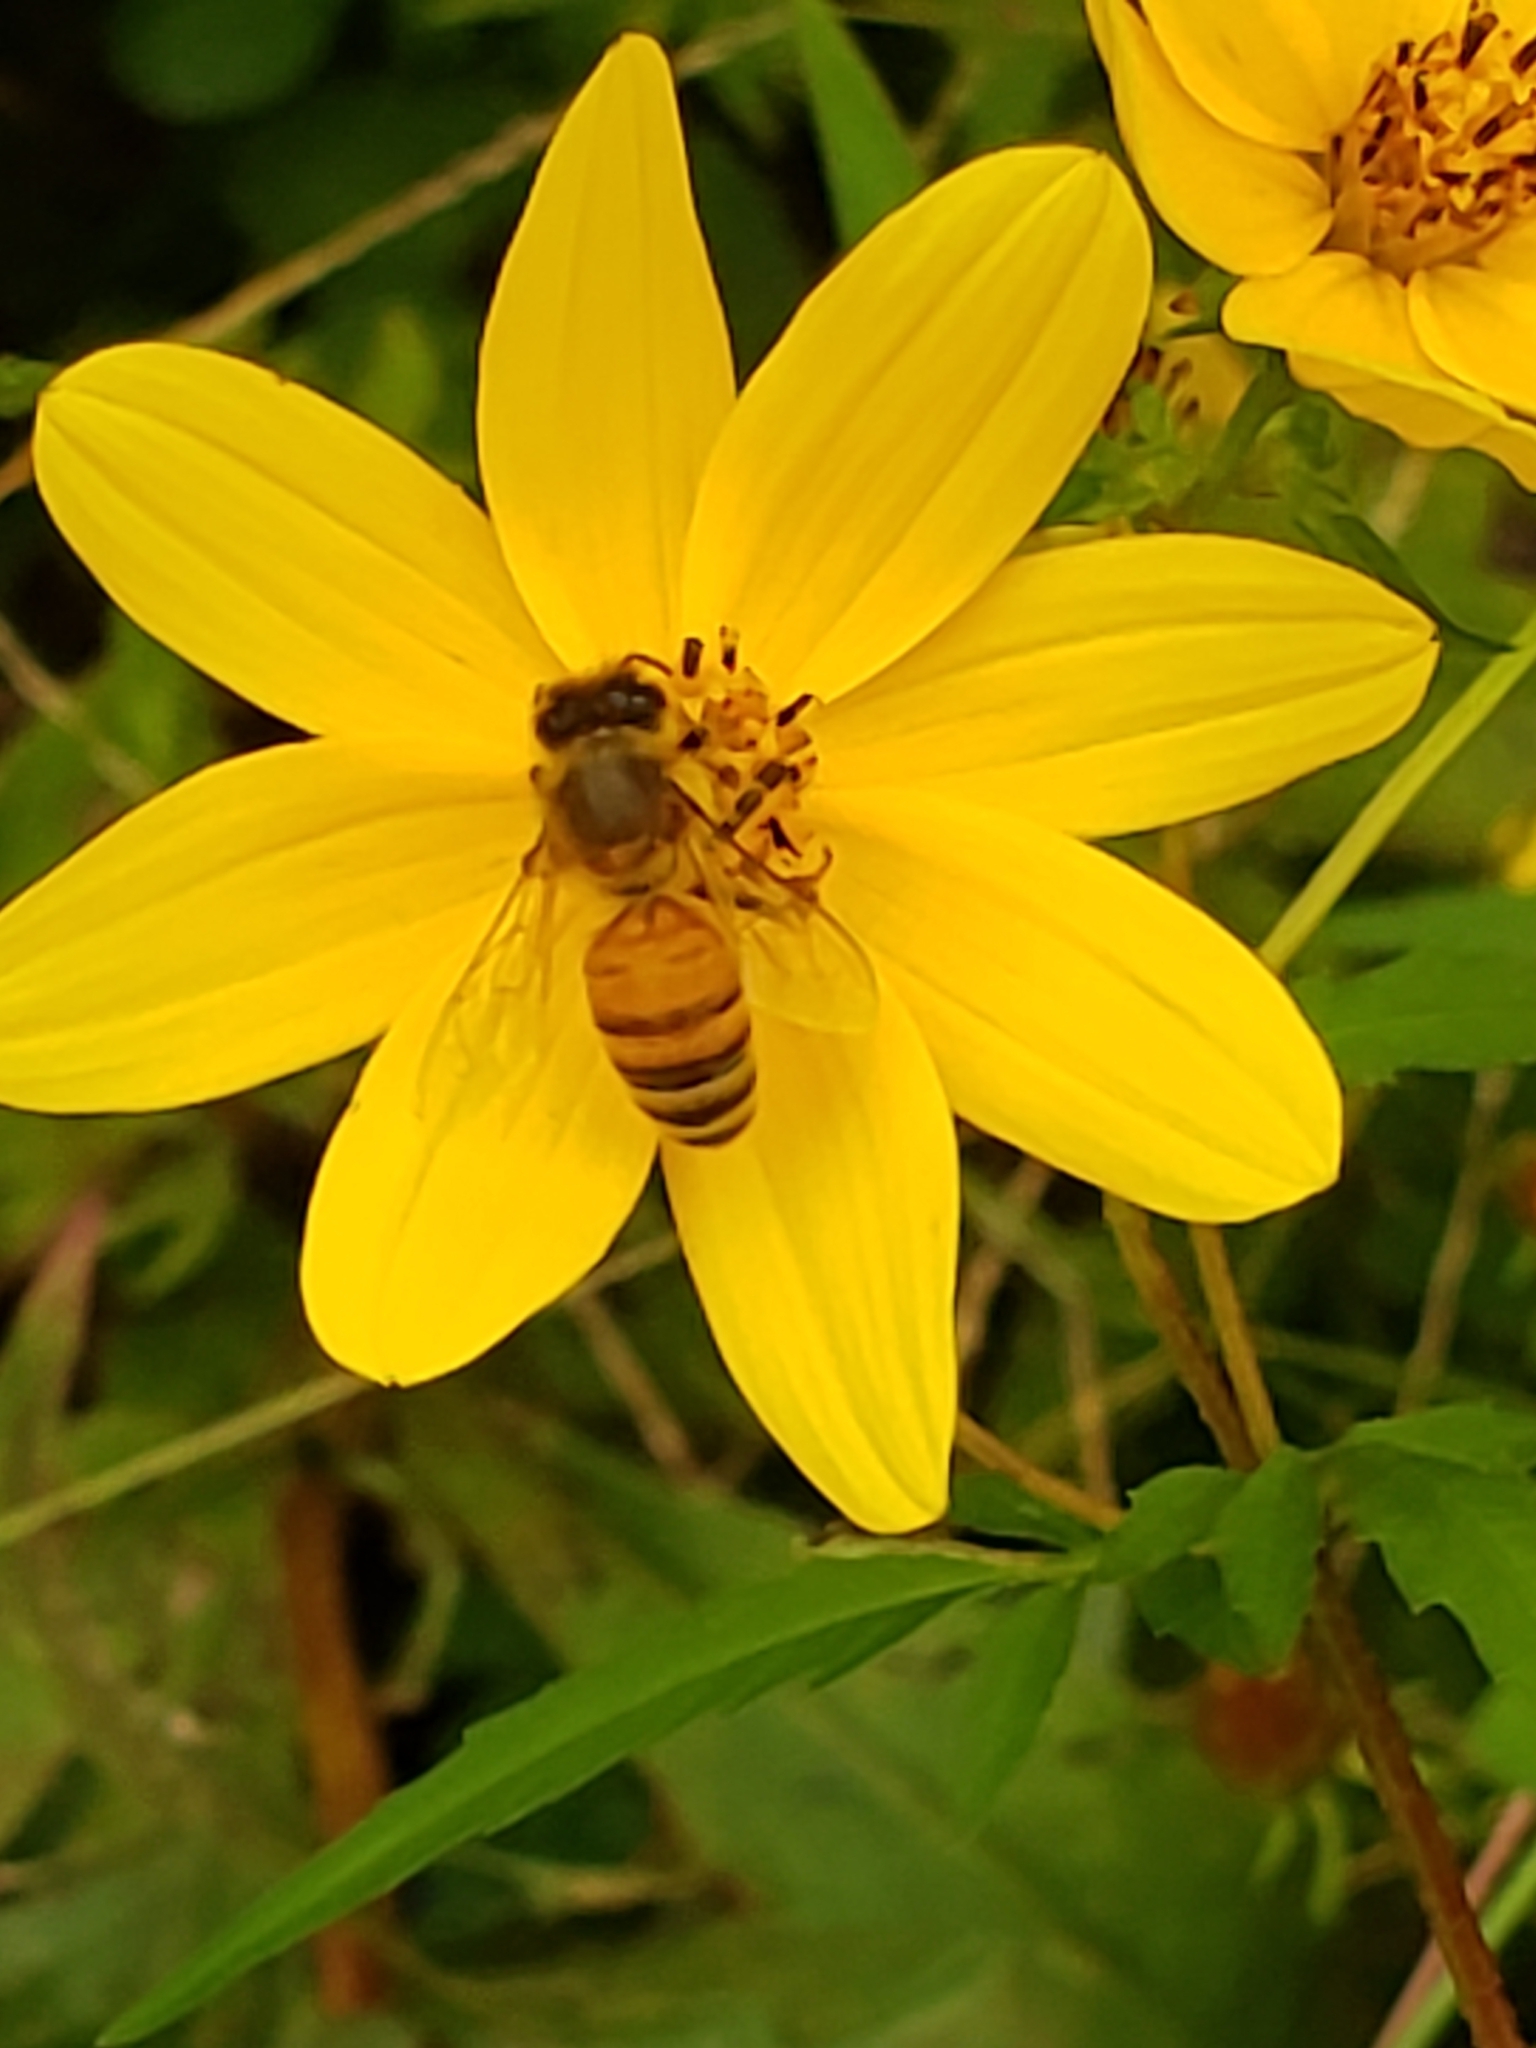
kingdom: Animalia
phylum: Arthropoda
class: Insecta
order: Hymenoptera
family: Apidae
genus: Apis
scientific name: Apis mellifera
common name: Honey bee
